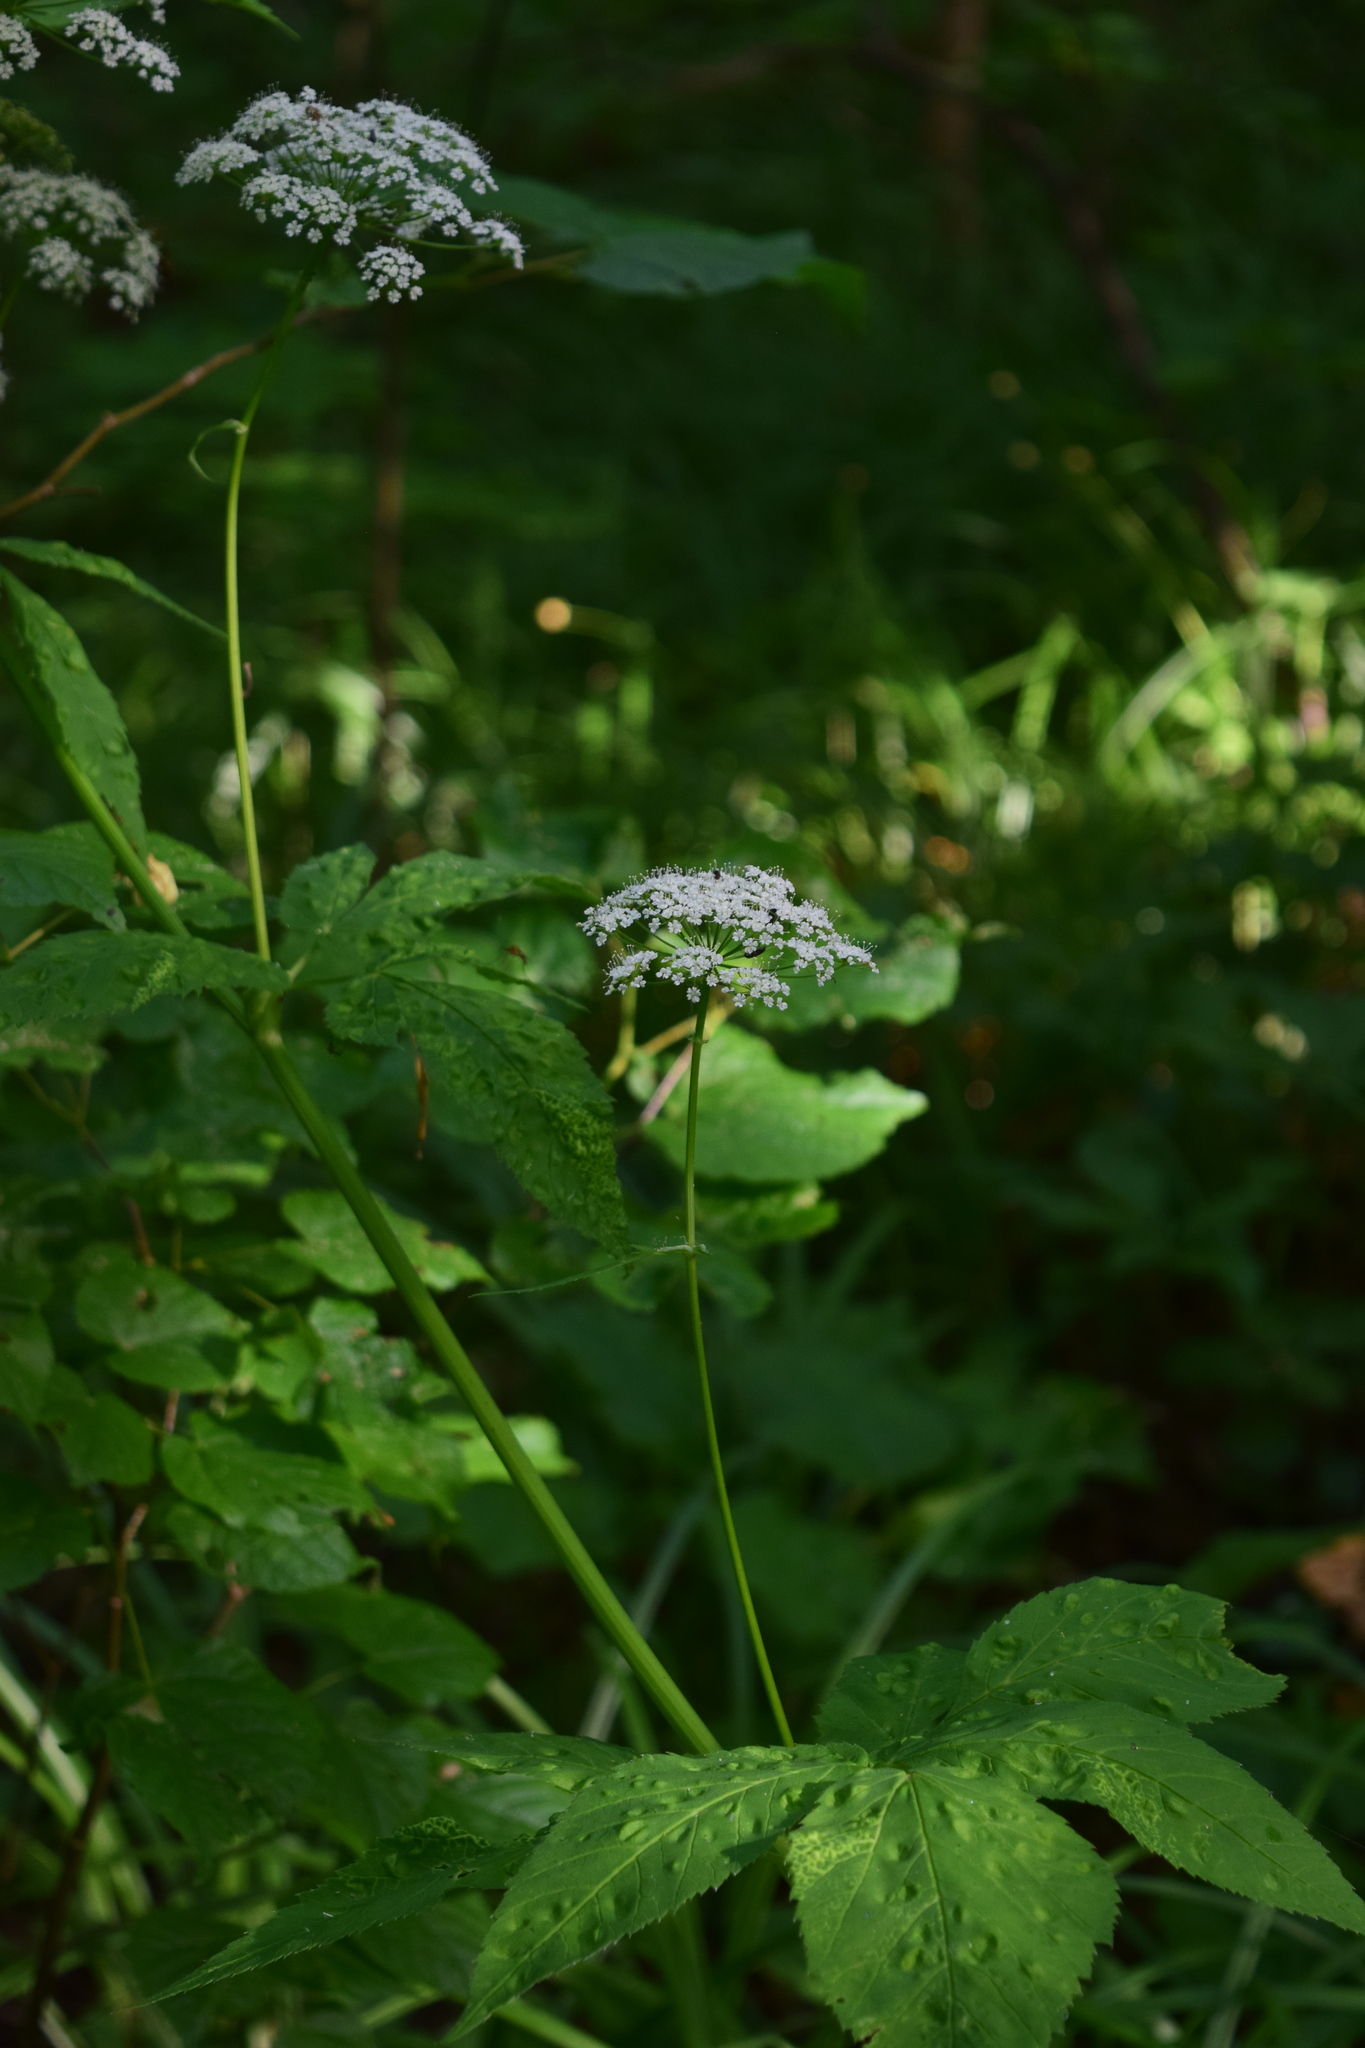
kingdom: Plantae
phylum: Tracheophyta
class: Magnoliopsida
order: Apiales
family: Apiaceae
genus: Aegopodium
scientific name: Aegopodium podagraria
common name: Ground-elder
